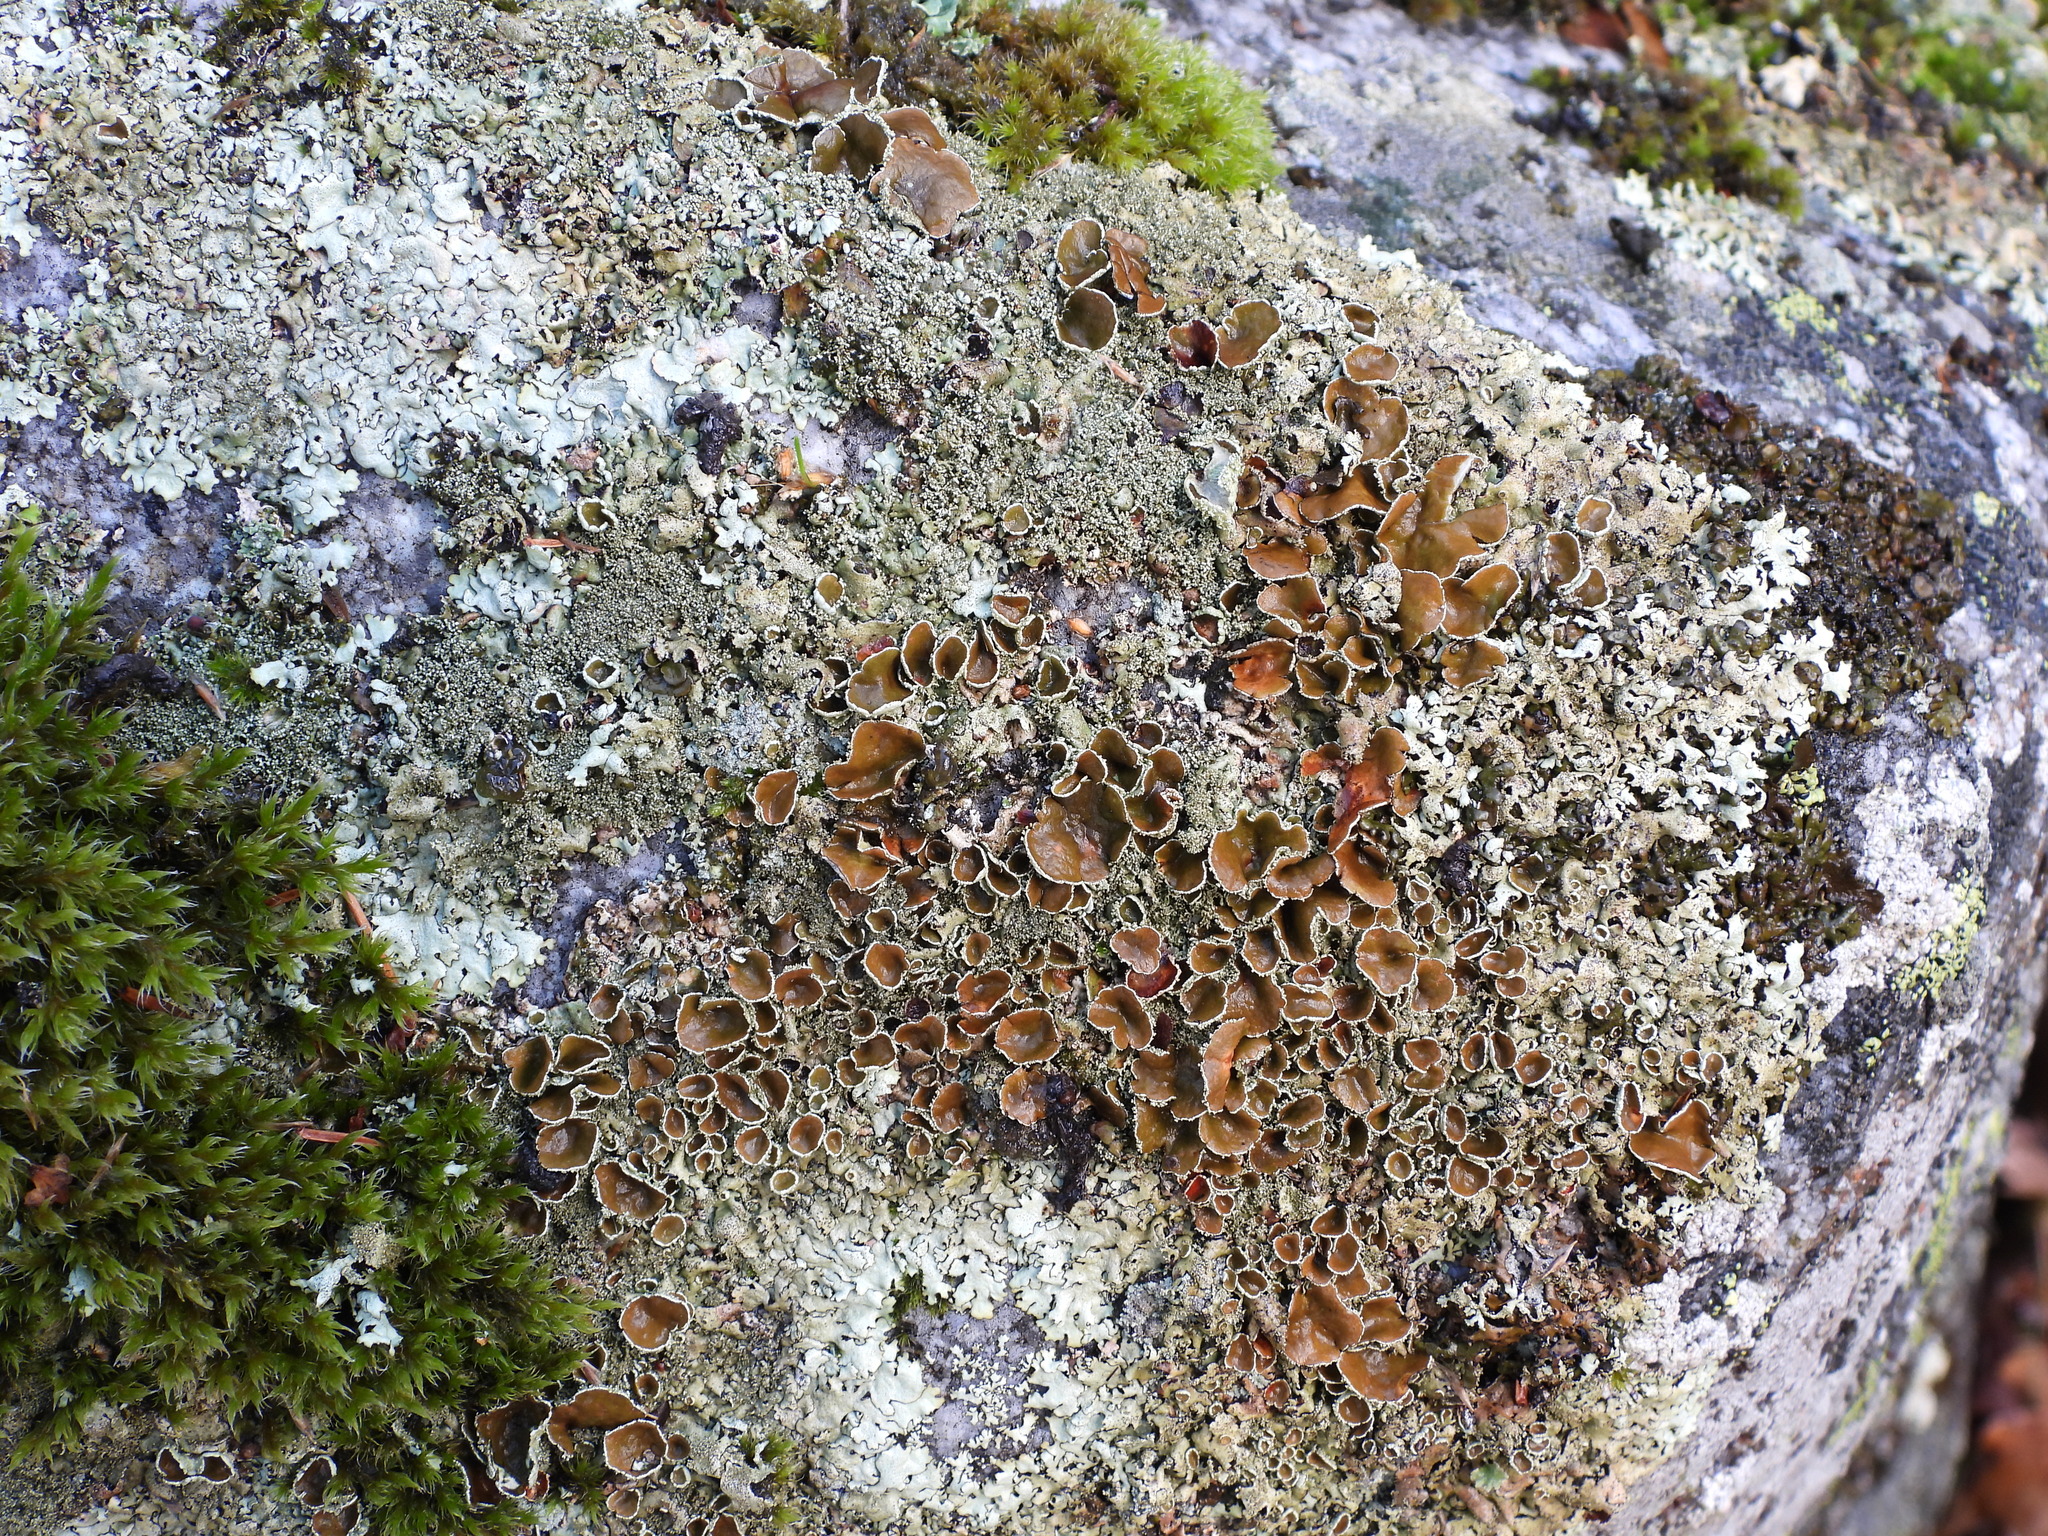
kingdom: Fungi
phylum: Ascomycota
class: Lecanoromycetes
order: Lecanorales
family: Parmeliaceae
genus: Xanthoparmelia
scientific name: Xanthoparmelia conspersa
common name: Peppered rock shield
